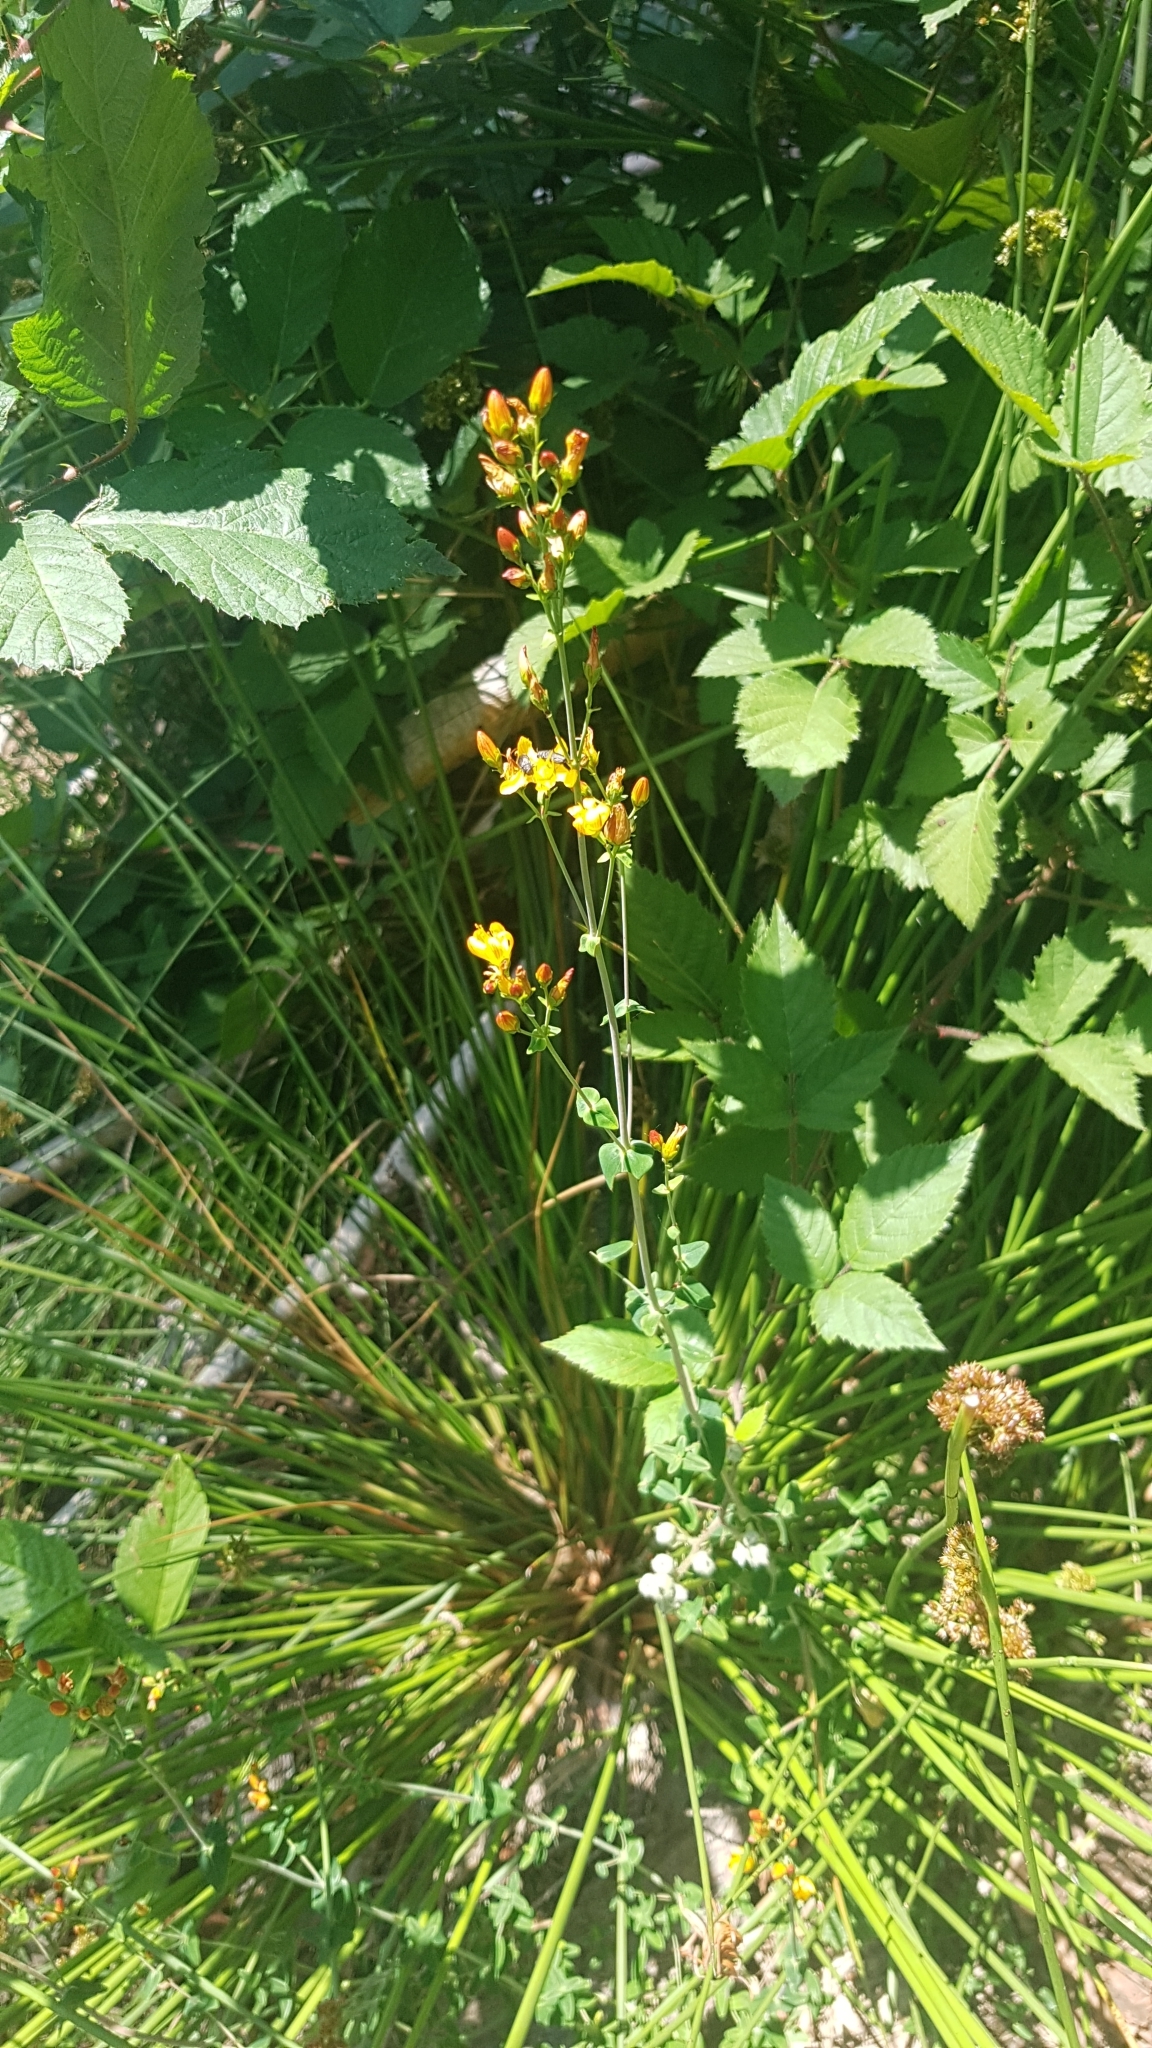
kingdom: Plantae
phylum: Tracheophyta
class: Magnoliopsida
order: Malpighiales
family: Hypericaceae
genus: Hypericum
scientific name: Hypericum pulchrum
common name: Slender st. john's-wort
